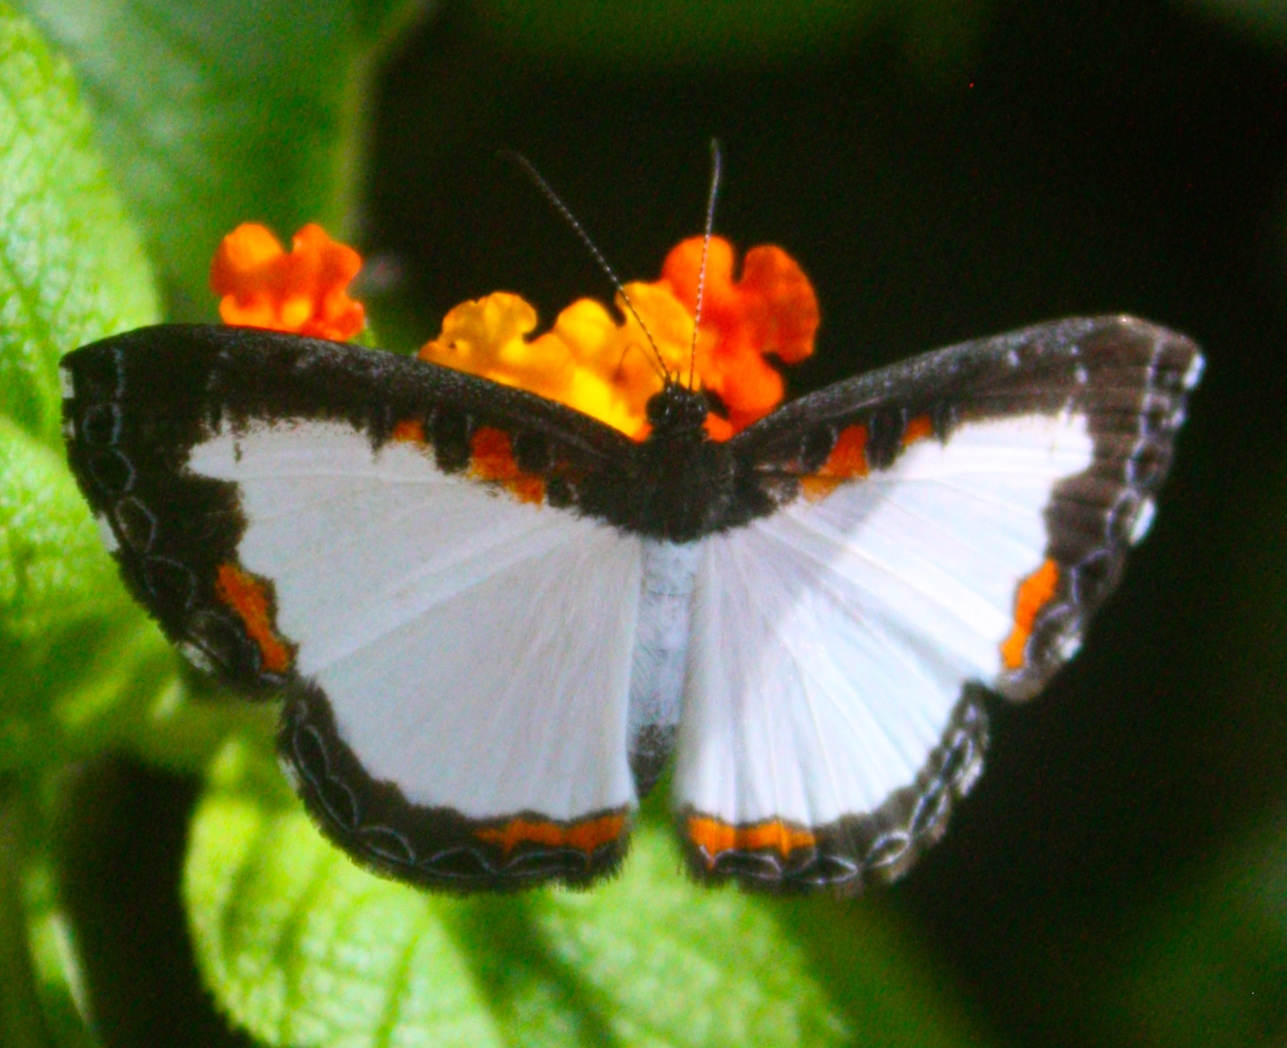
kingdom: Animalia
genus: Nymphidium
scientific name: Nymphidium chione
